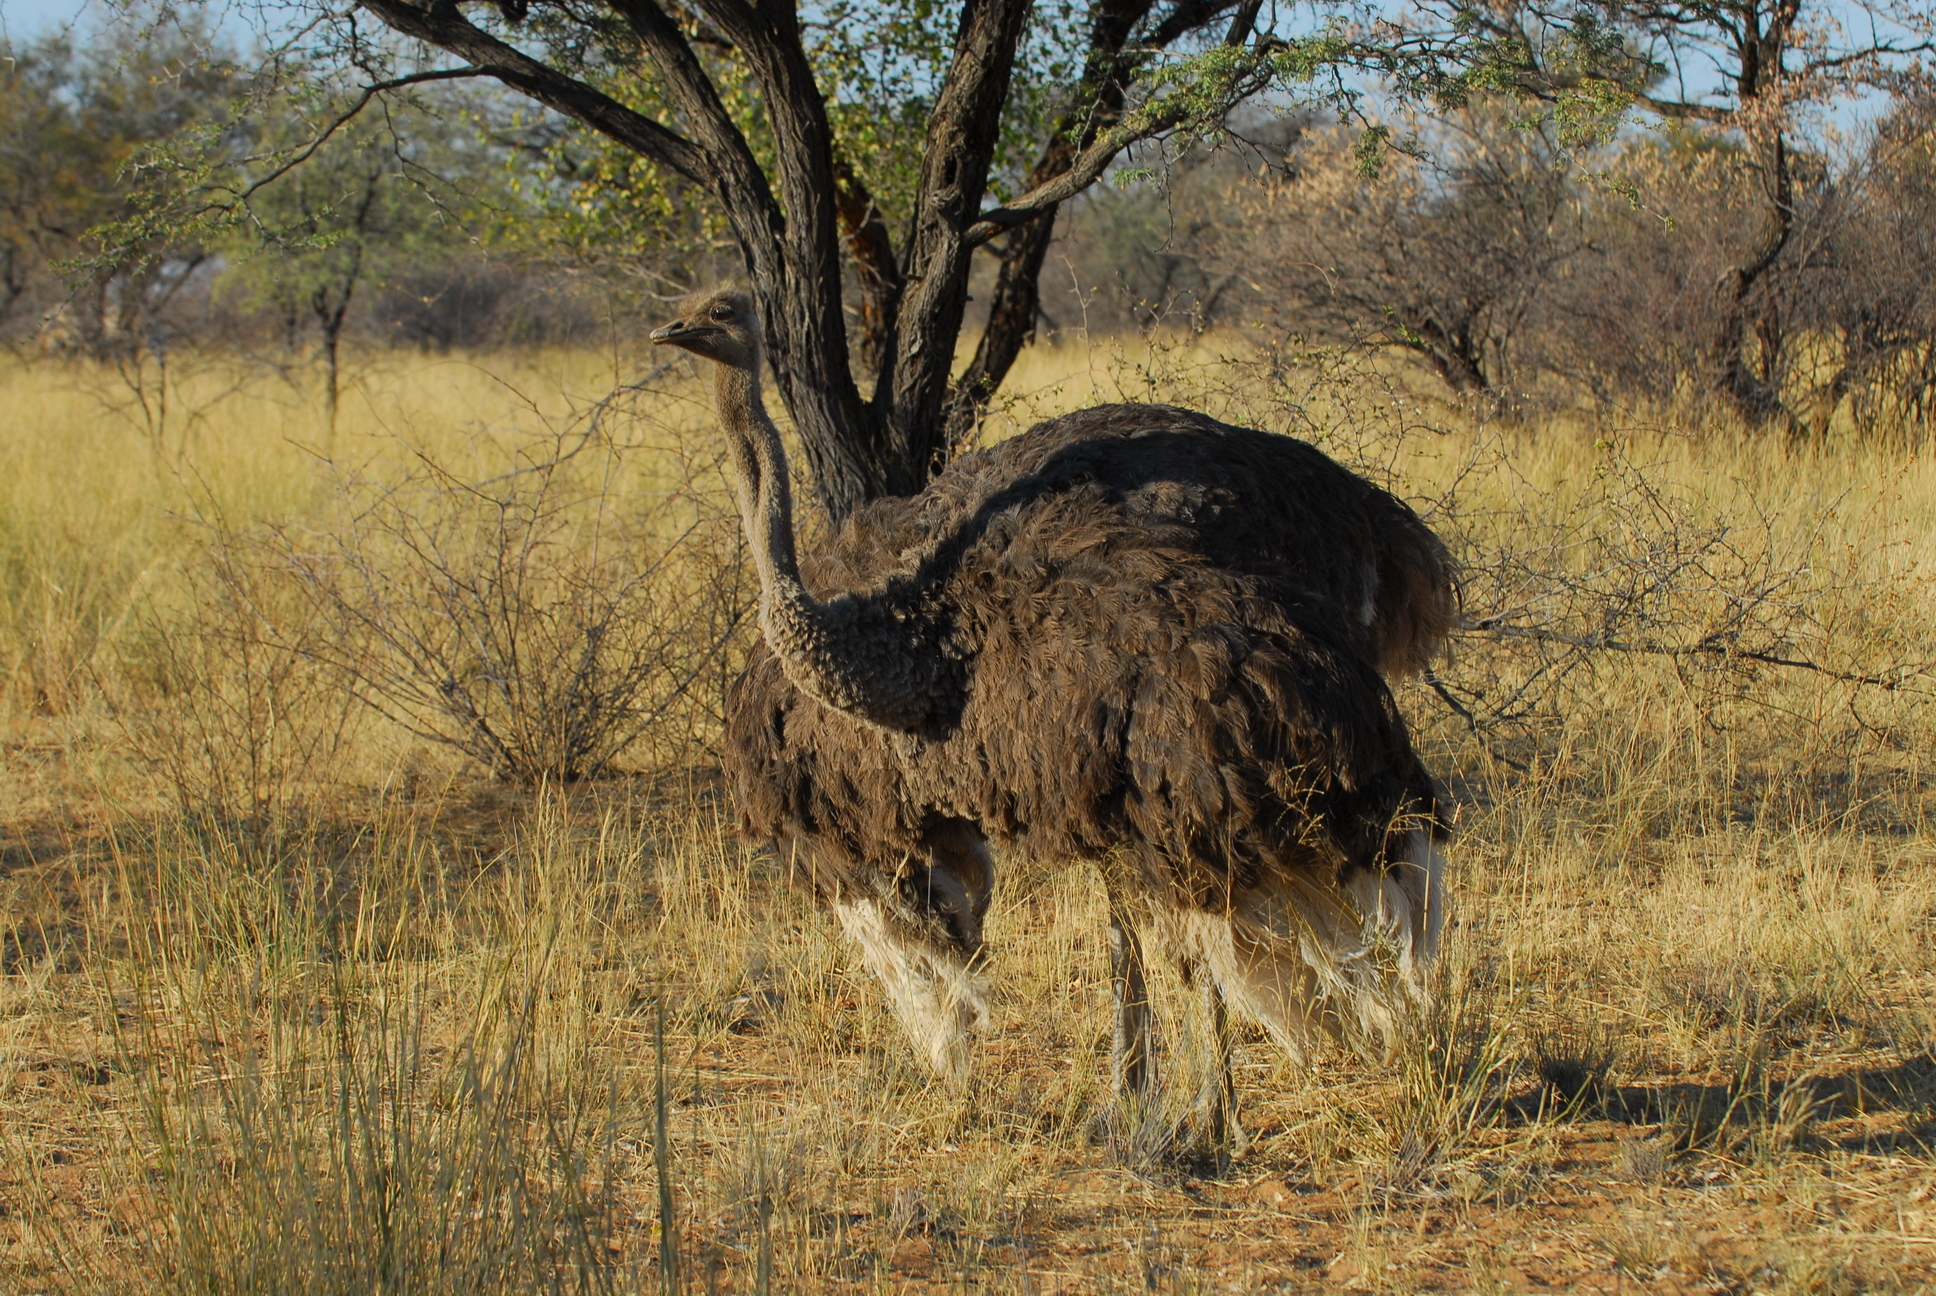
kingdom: Animalia
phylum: Chordata
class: Aves
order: Struthioniformes
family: Struthionidae
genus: Struthio
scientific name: Struthio camelus
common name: Common ostrich
